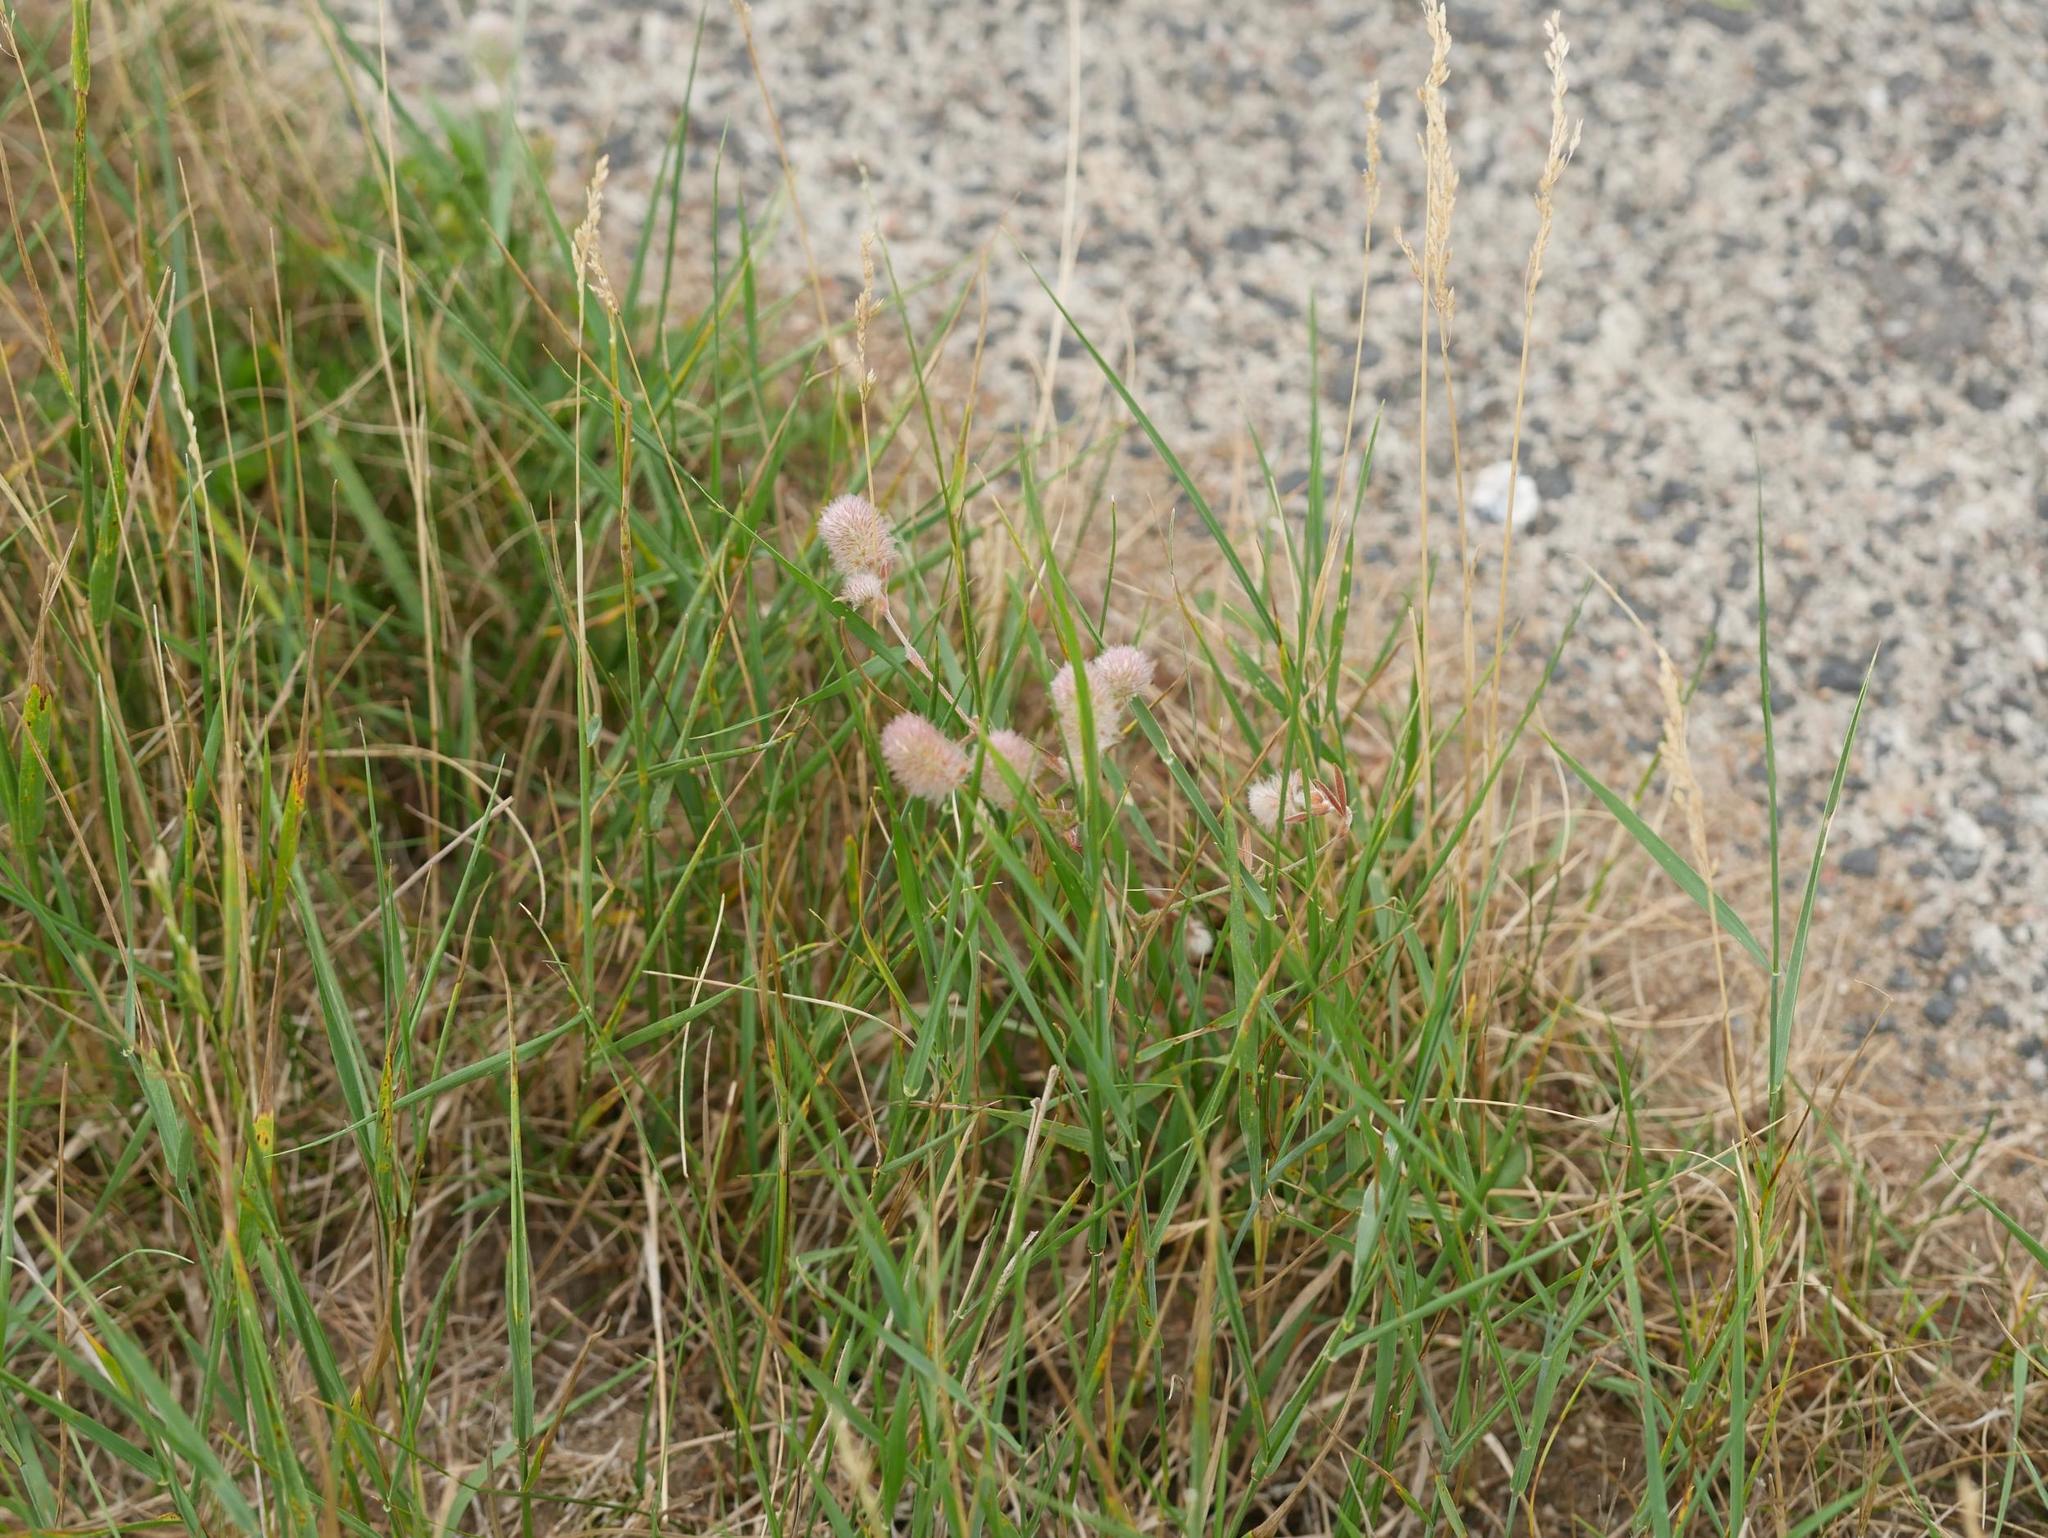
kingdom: Plantae
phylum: Tracheophyta
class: Magnoliopsida
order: Fabales
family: Fabaceae
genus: Trifolium
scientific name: Trifolium arvense
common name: Hare's-foot clover
